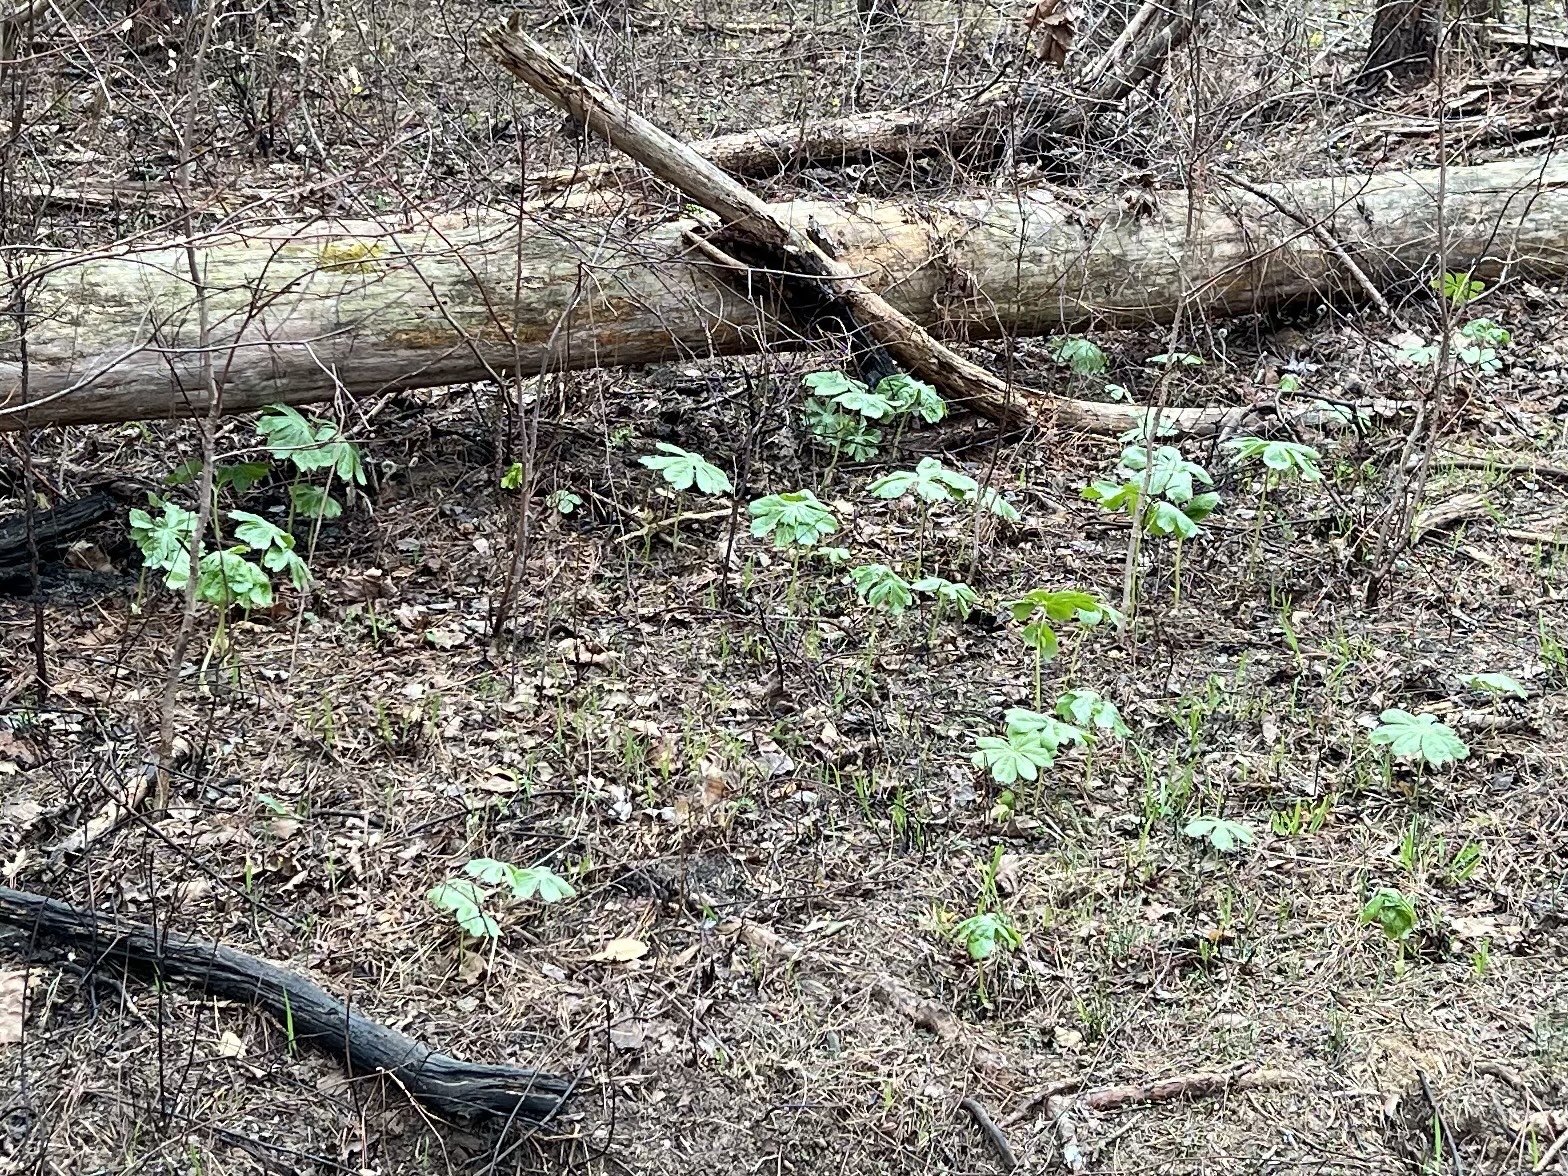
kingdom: Plantae
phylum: Tracheophyta
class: Magnoliopsida
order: Ranunculales
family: Berberidaceae
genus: Podophyllum
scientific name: Podophyllum peltatum
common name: Wild mandrake
